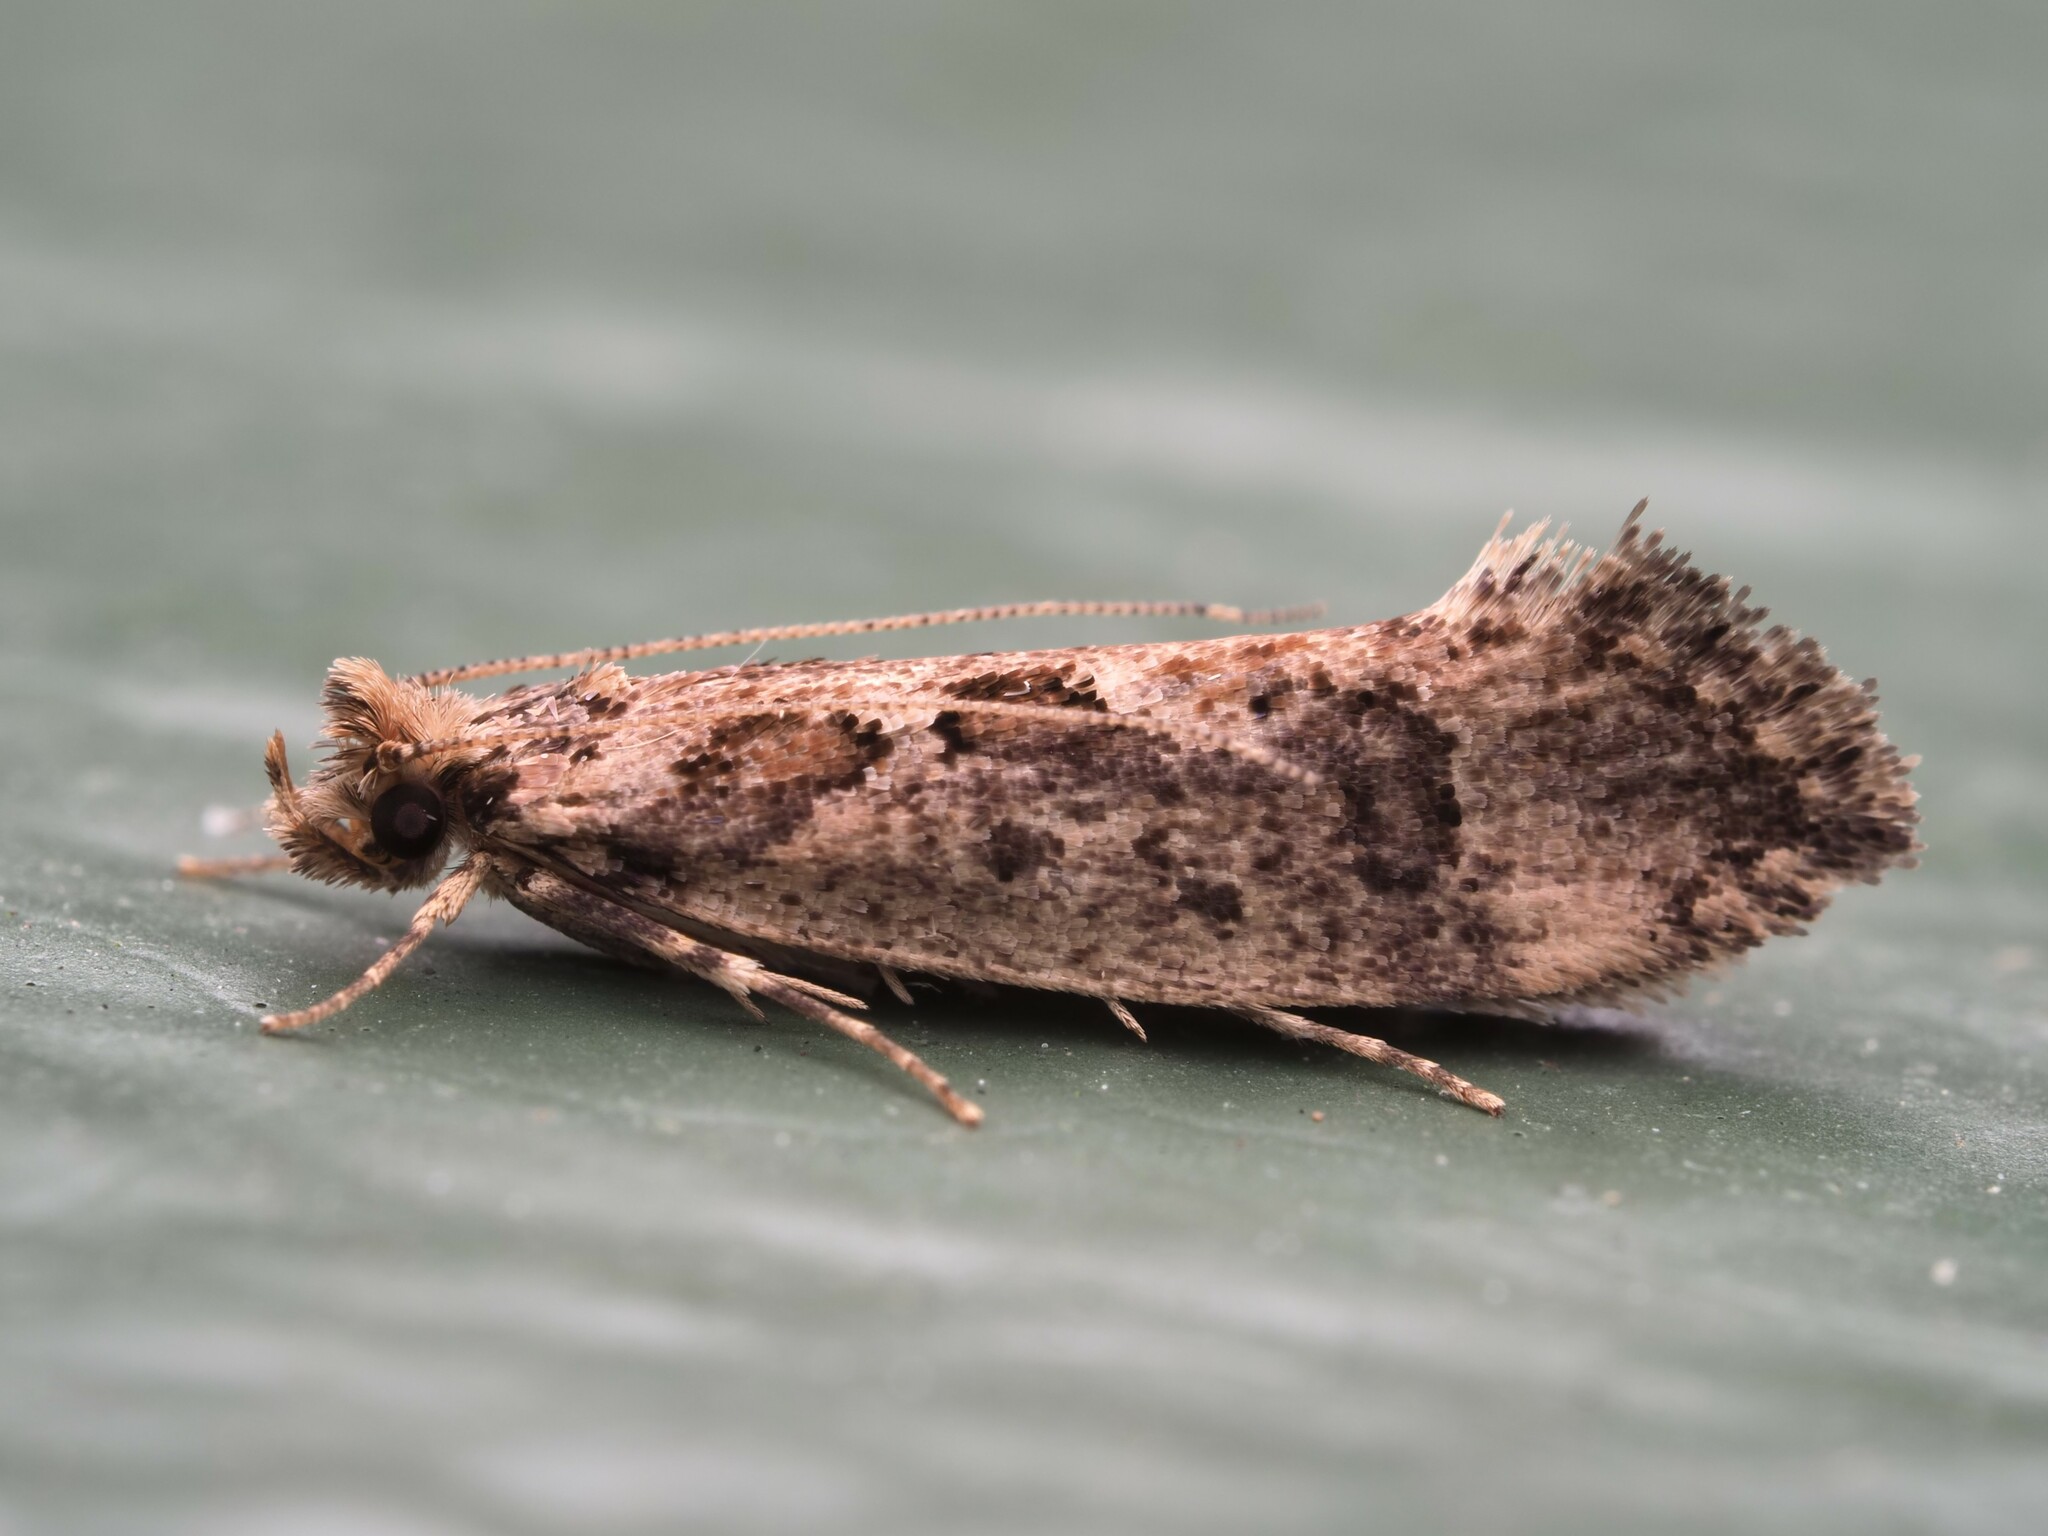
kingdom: Animalia
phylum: Arthropoda
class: Insecta
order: Lepidoptera
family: Tineidae
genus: Erechthias
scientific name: Erechthias capnitis
